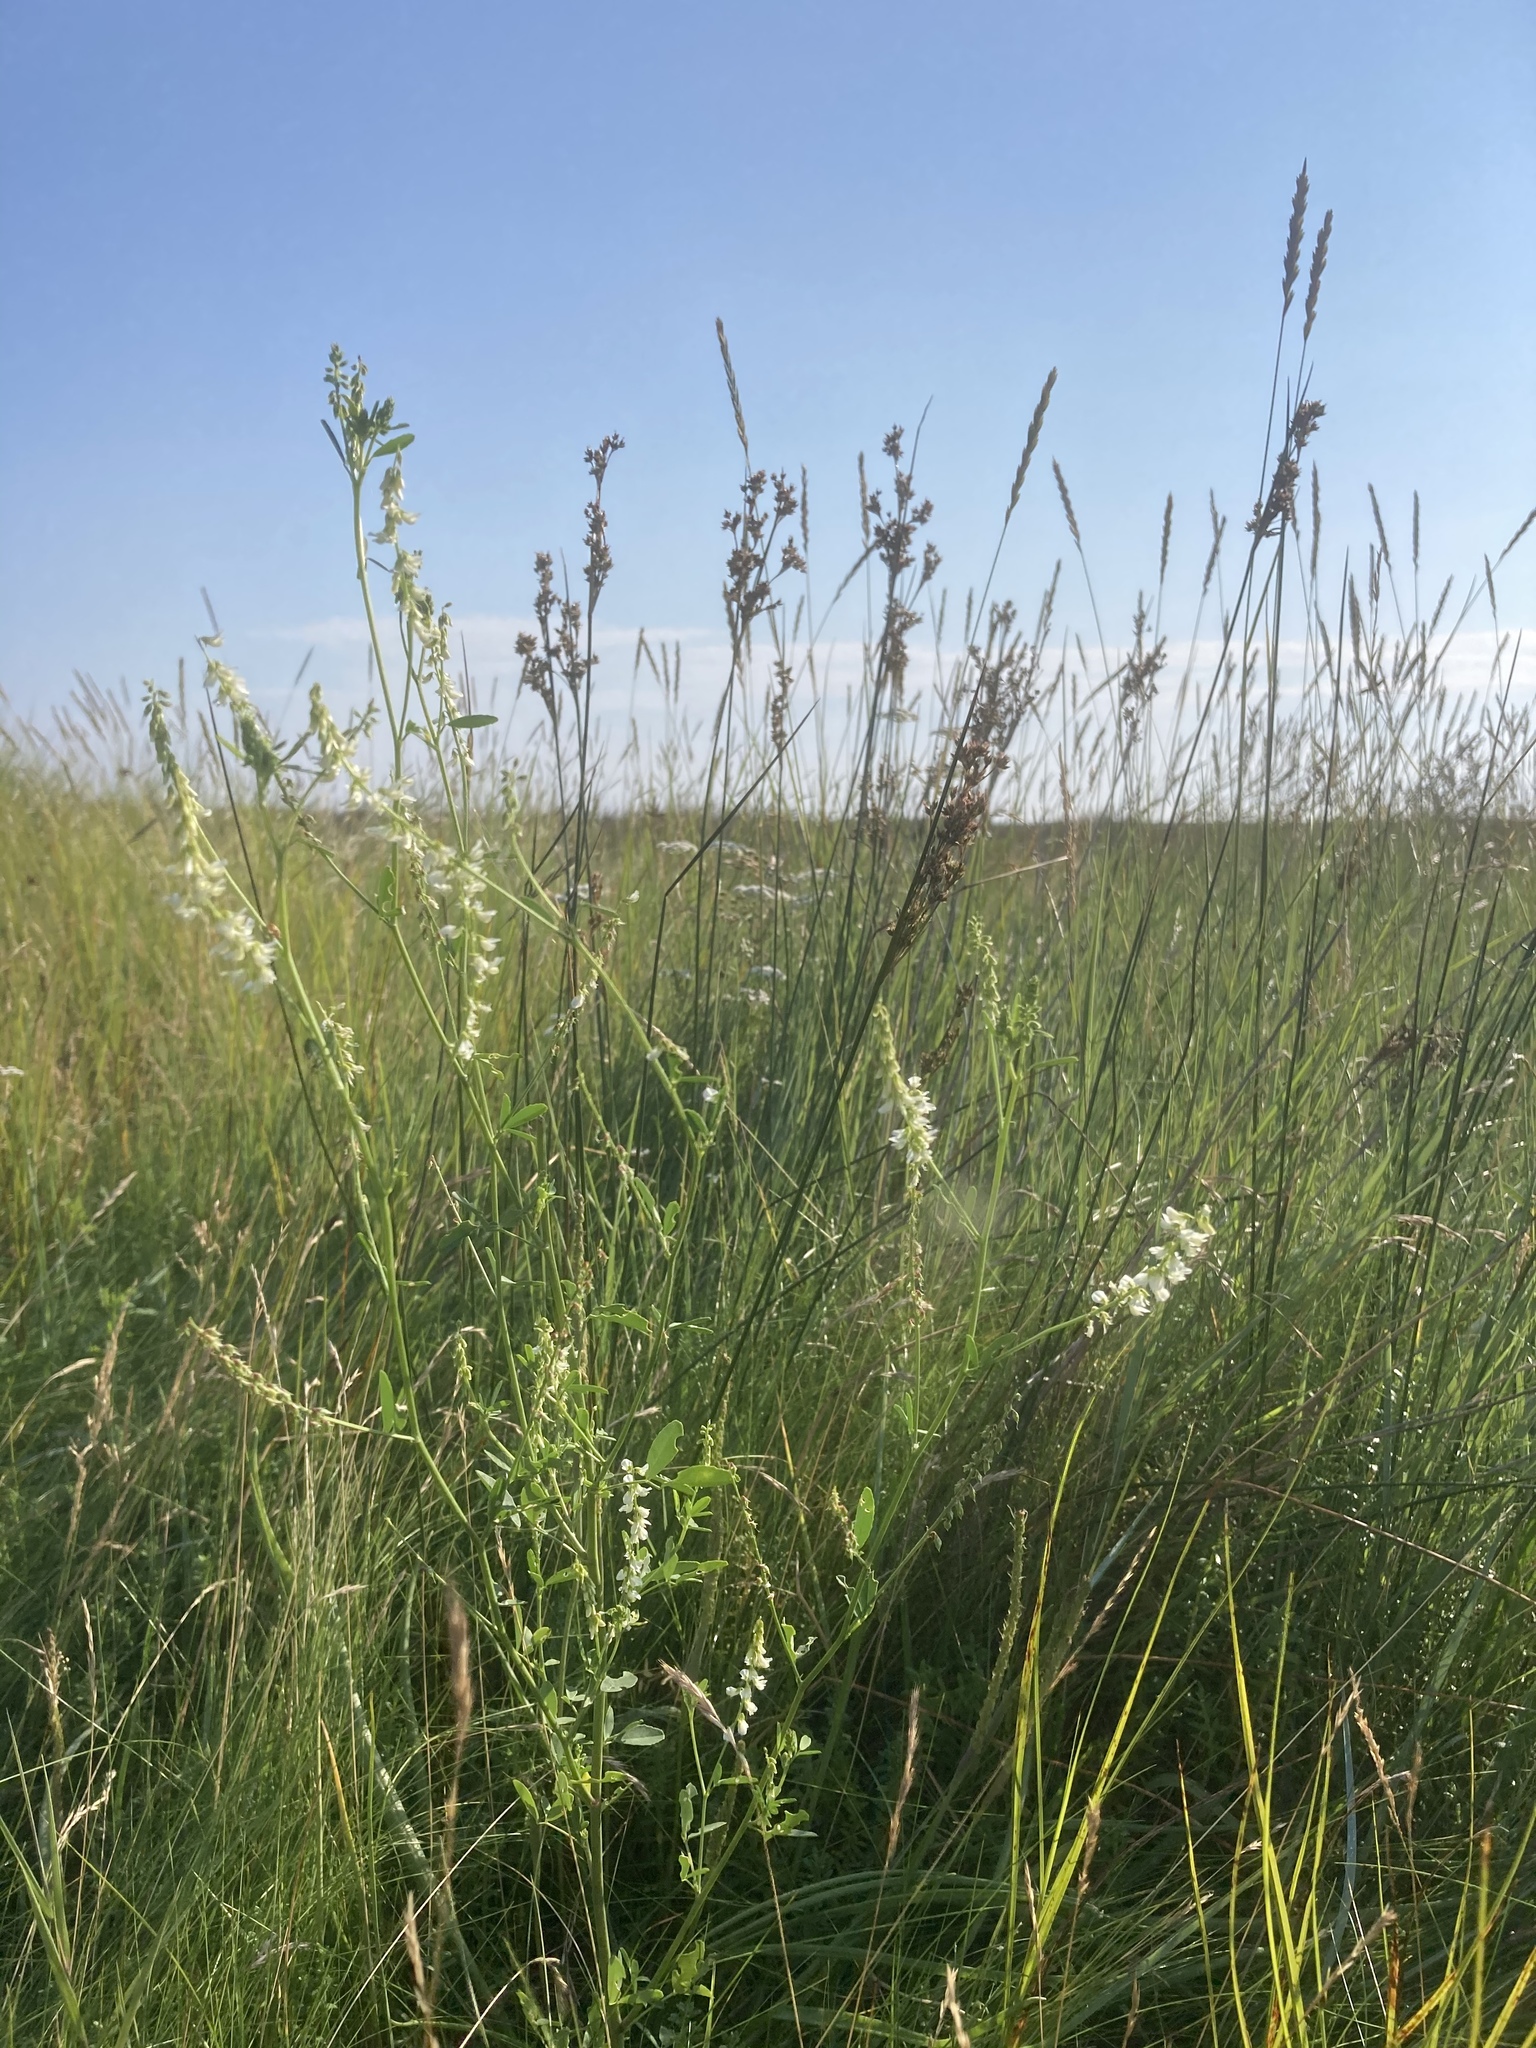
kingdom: Plantae
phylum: Tracheophyta
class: Magnoliopsida
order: Fabales
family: Fabaceae
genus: Melilotus
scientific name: Melilotus albus
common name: White melilot
